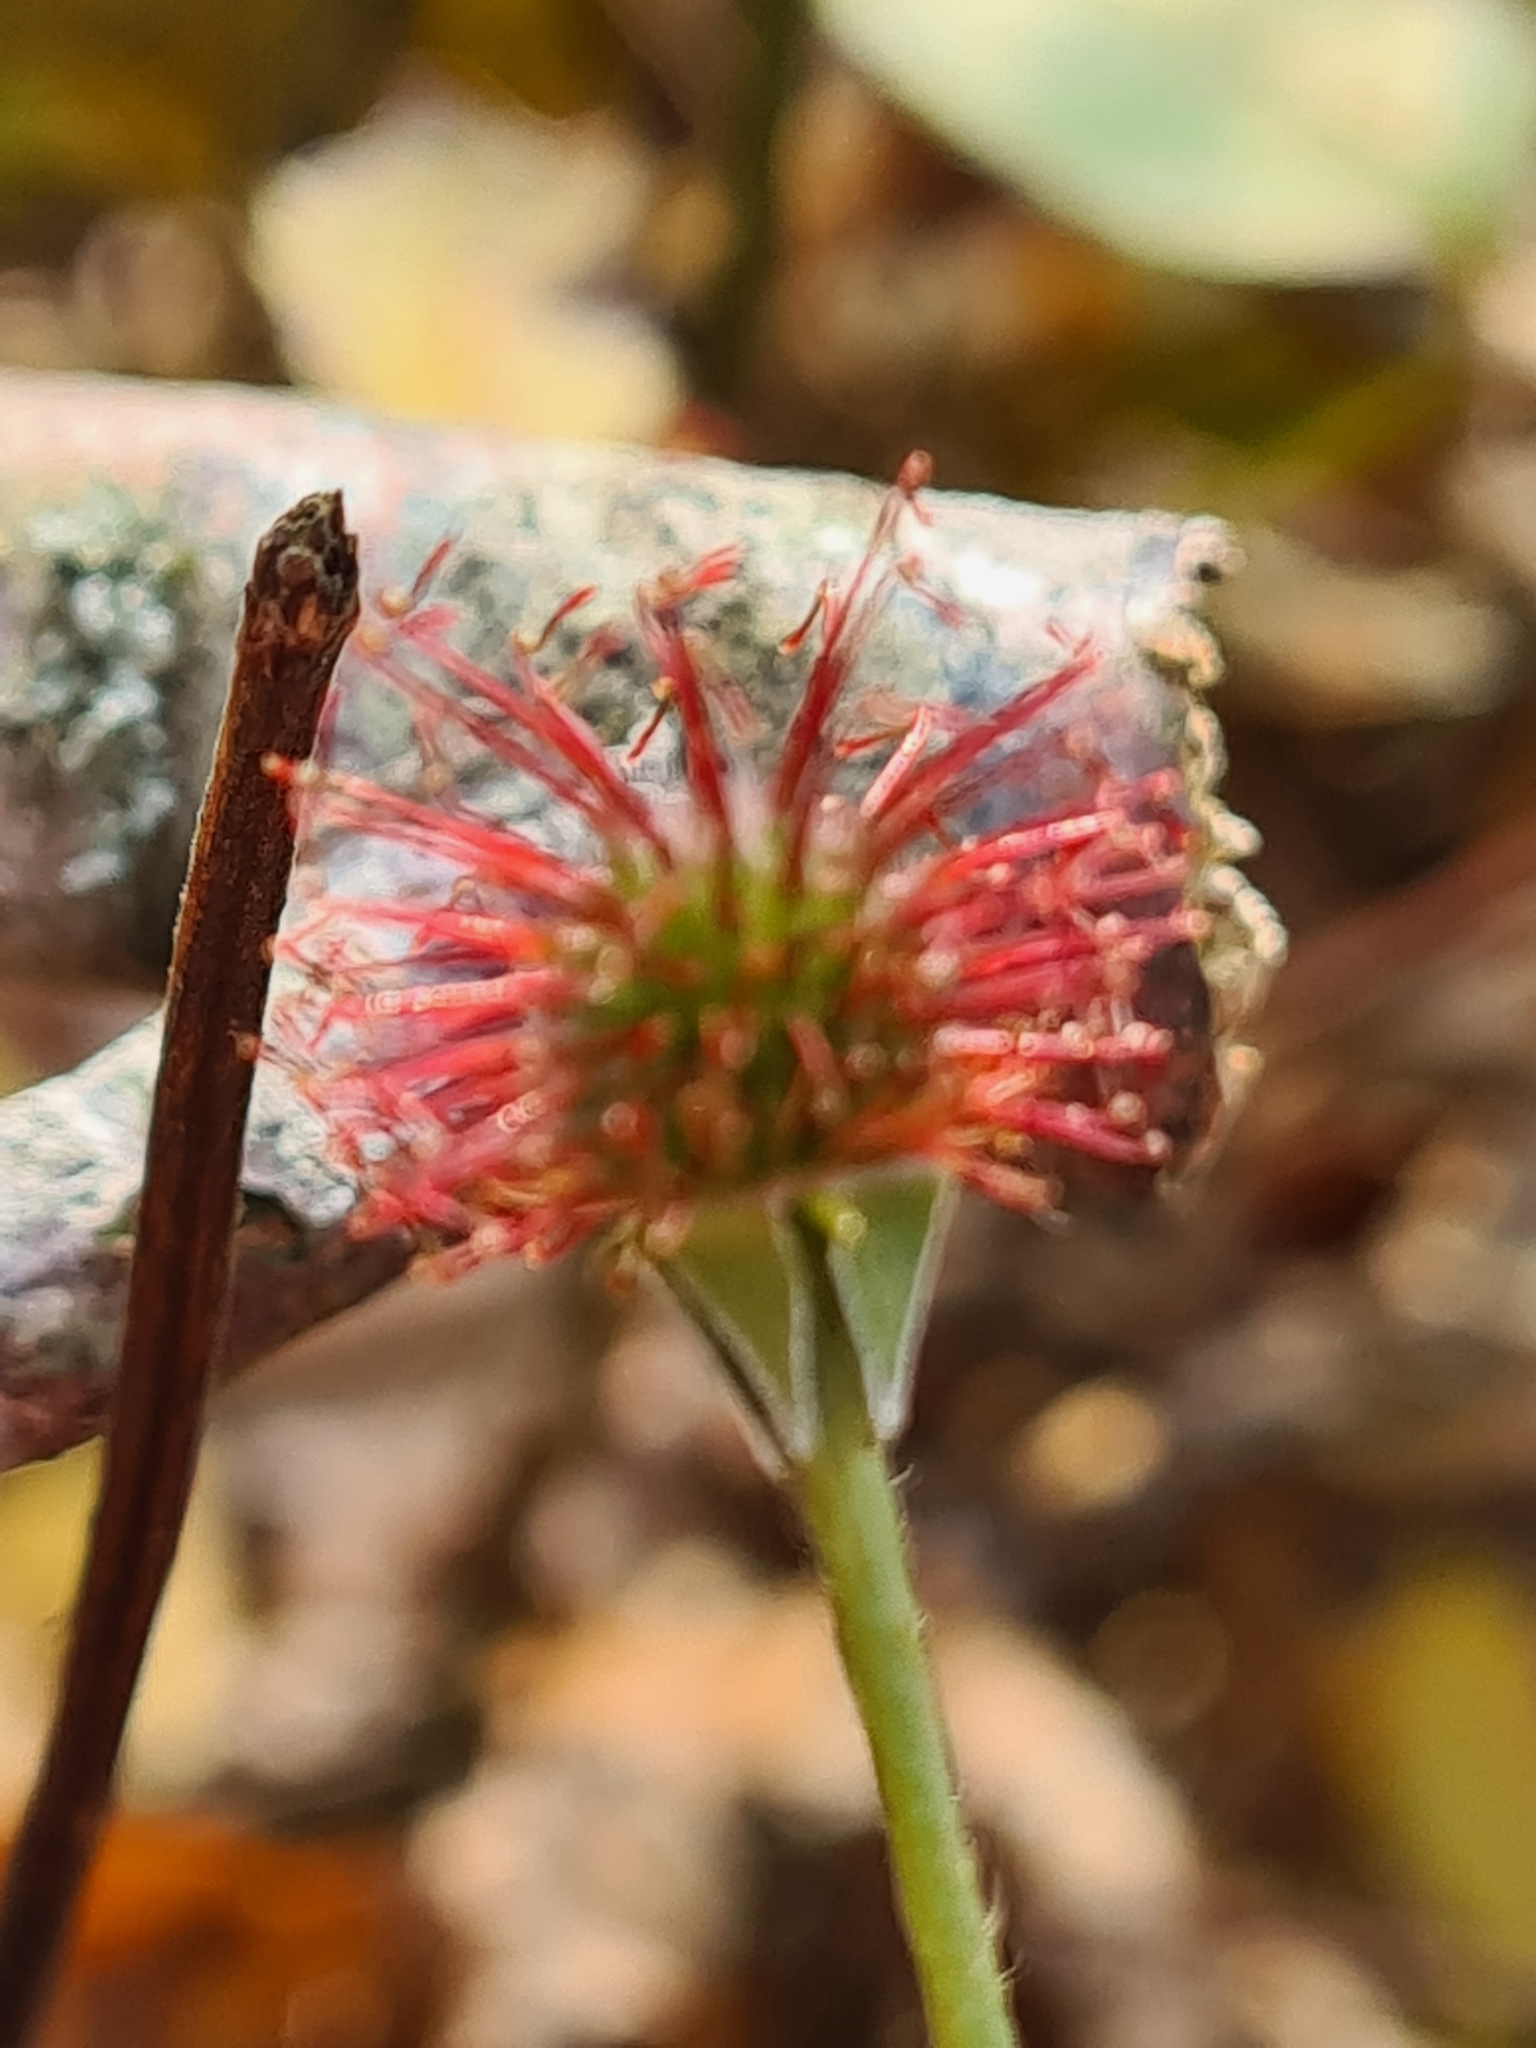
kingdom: Plantae
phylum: Tracheophyta
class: Magnoliopsida
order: Rosales
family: Rosaceae
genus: Geum
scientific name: Geum urbanum
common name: Wood avens
